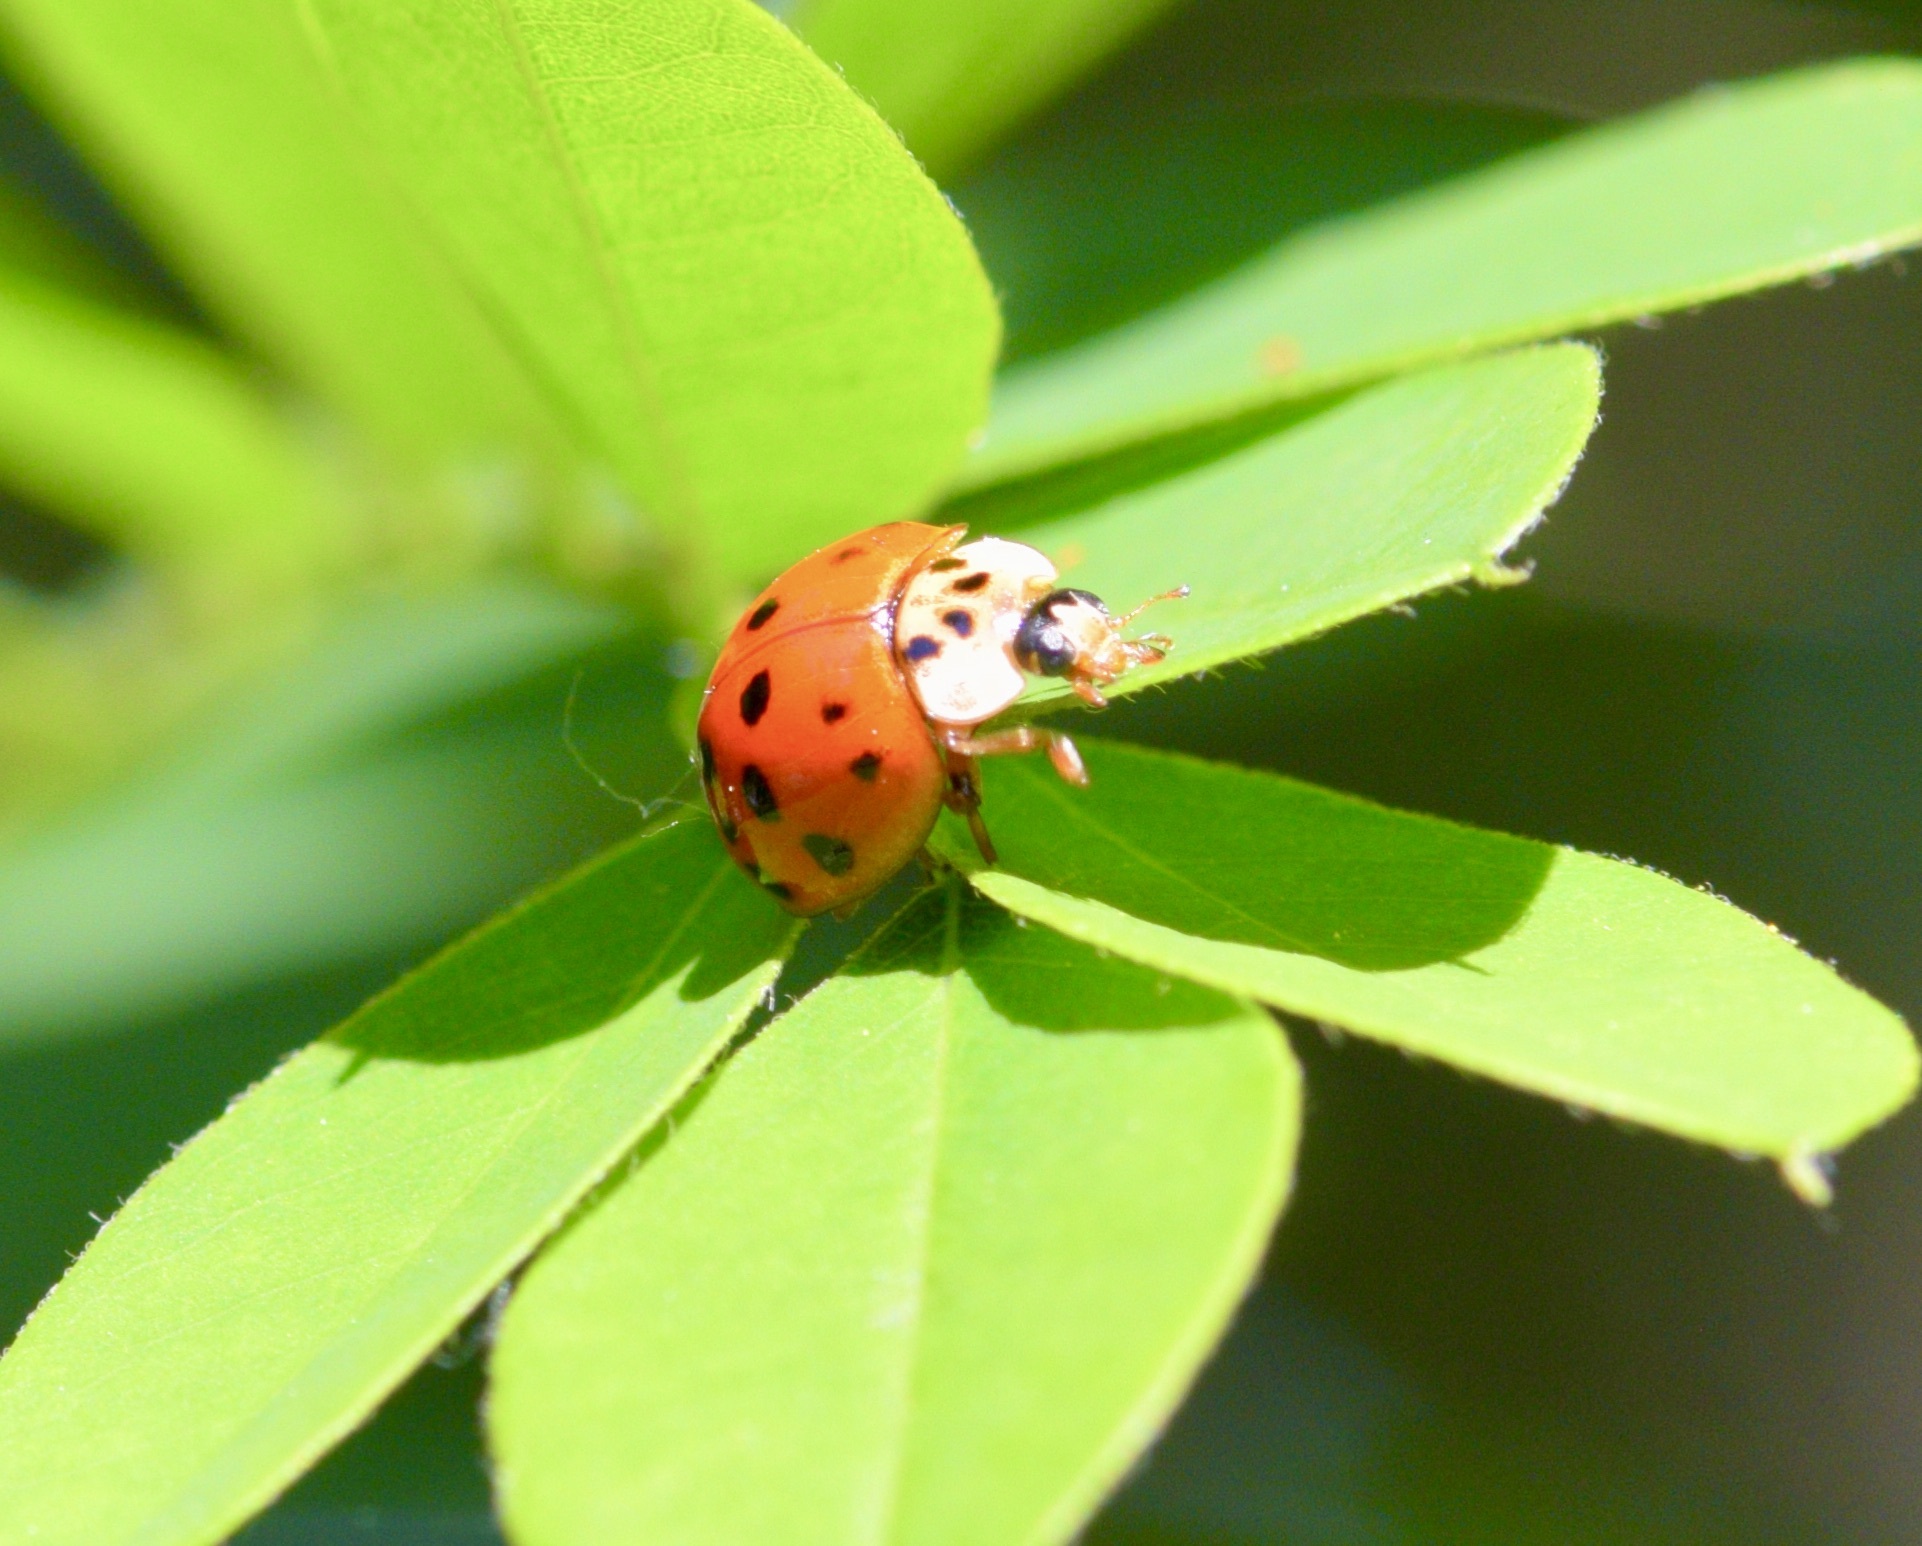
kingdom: Animalia
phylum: Arthropoda
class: Insecta
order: Coleoptera
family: Coccinellidae
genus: Harmonia
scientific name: Harmonia axyridis
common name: Harlequin ladybird
